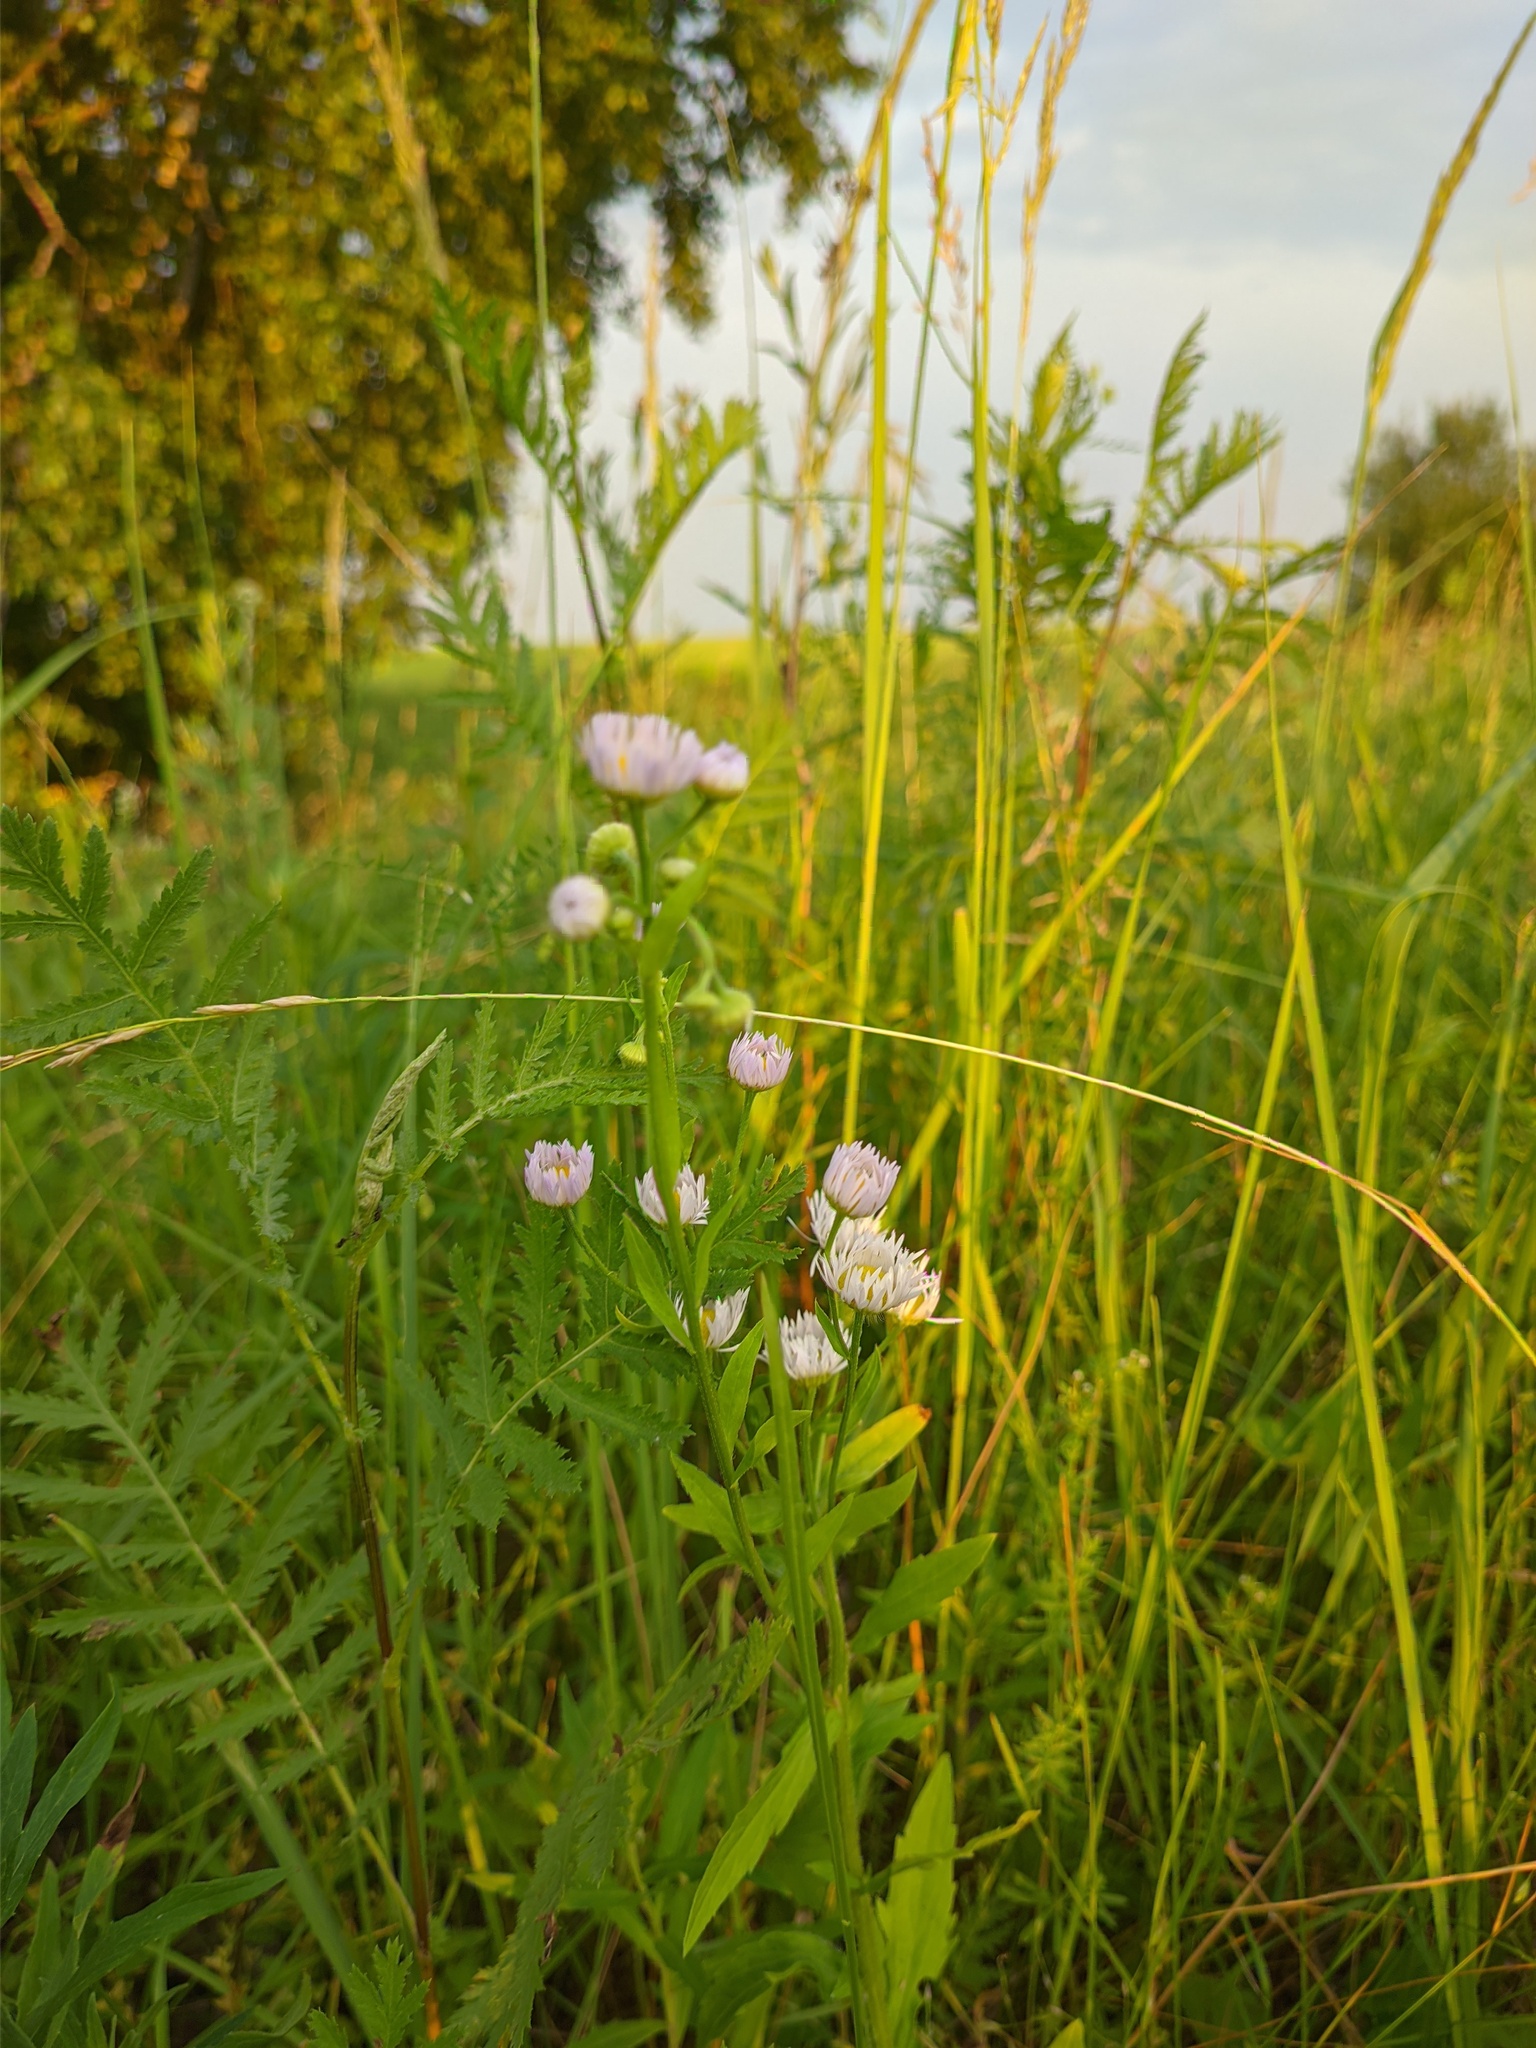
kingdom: Plantae
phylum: Tracheophyta
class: Magnoliopsida
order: Asterales
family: Asteraceae
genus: Erigeron
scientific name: Erigeron annuus
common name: Tall fleabane
